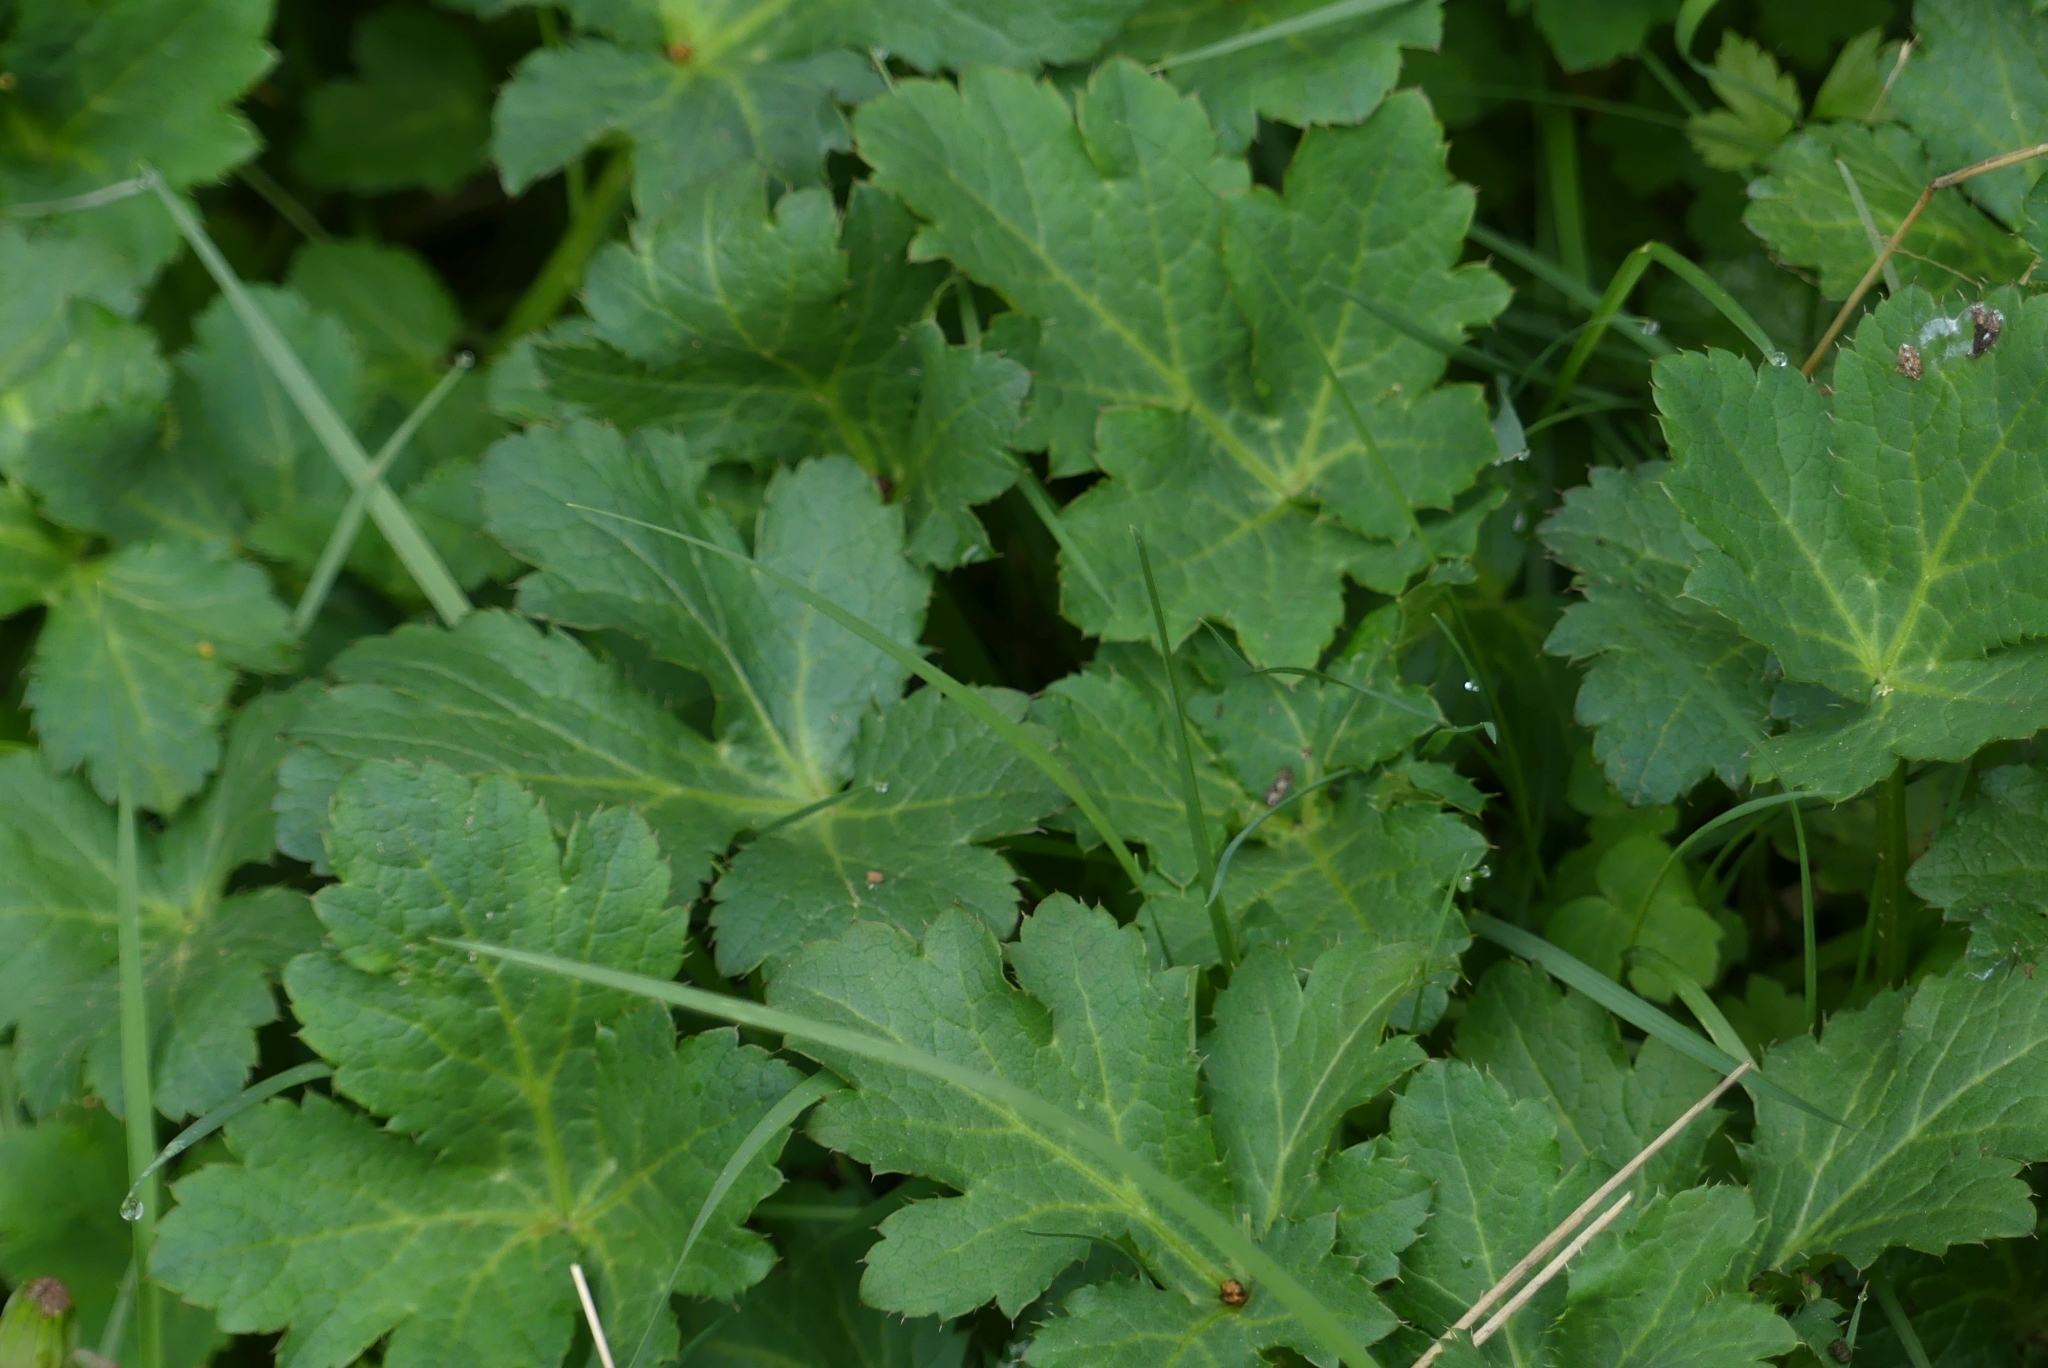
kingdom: Plantae
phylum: Tracheophyta
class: Magnoliopsida
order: Apiales
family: Apiaceae
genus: Sanicula
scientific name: Sanicula crassicaulis
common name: Western snakeroot
